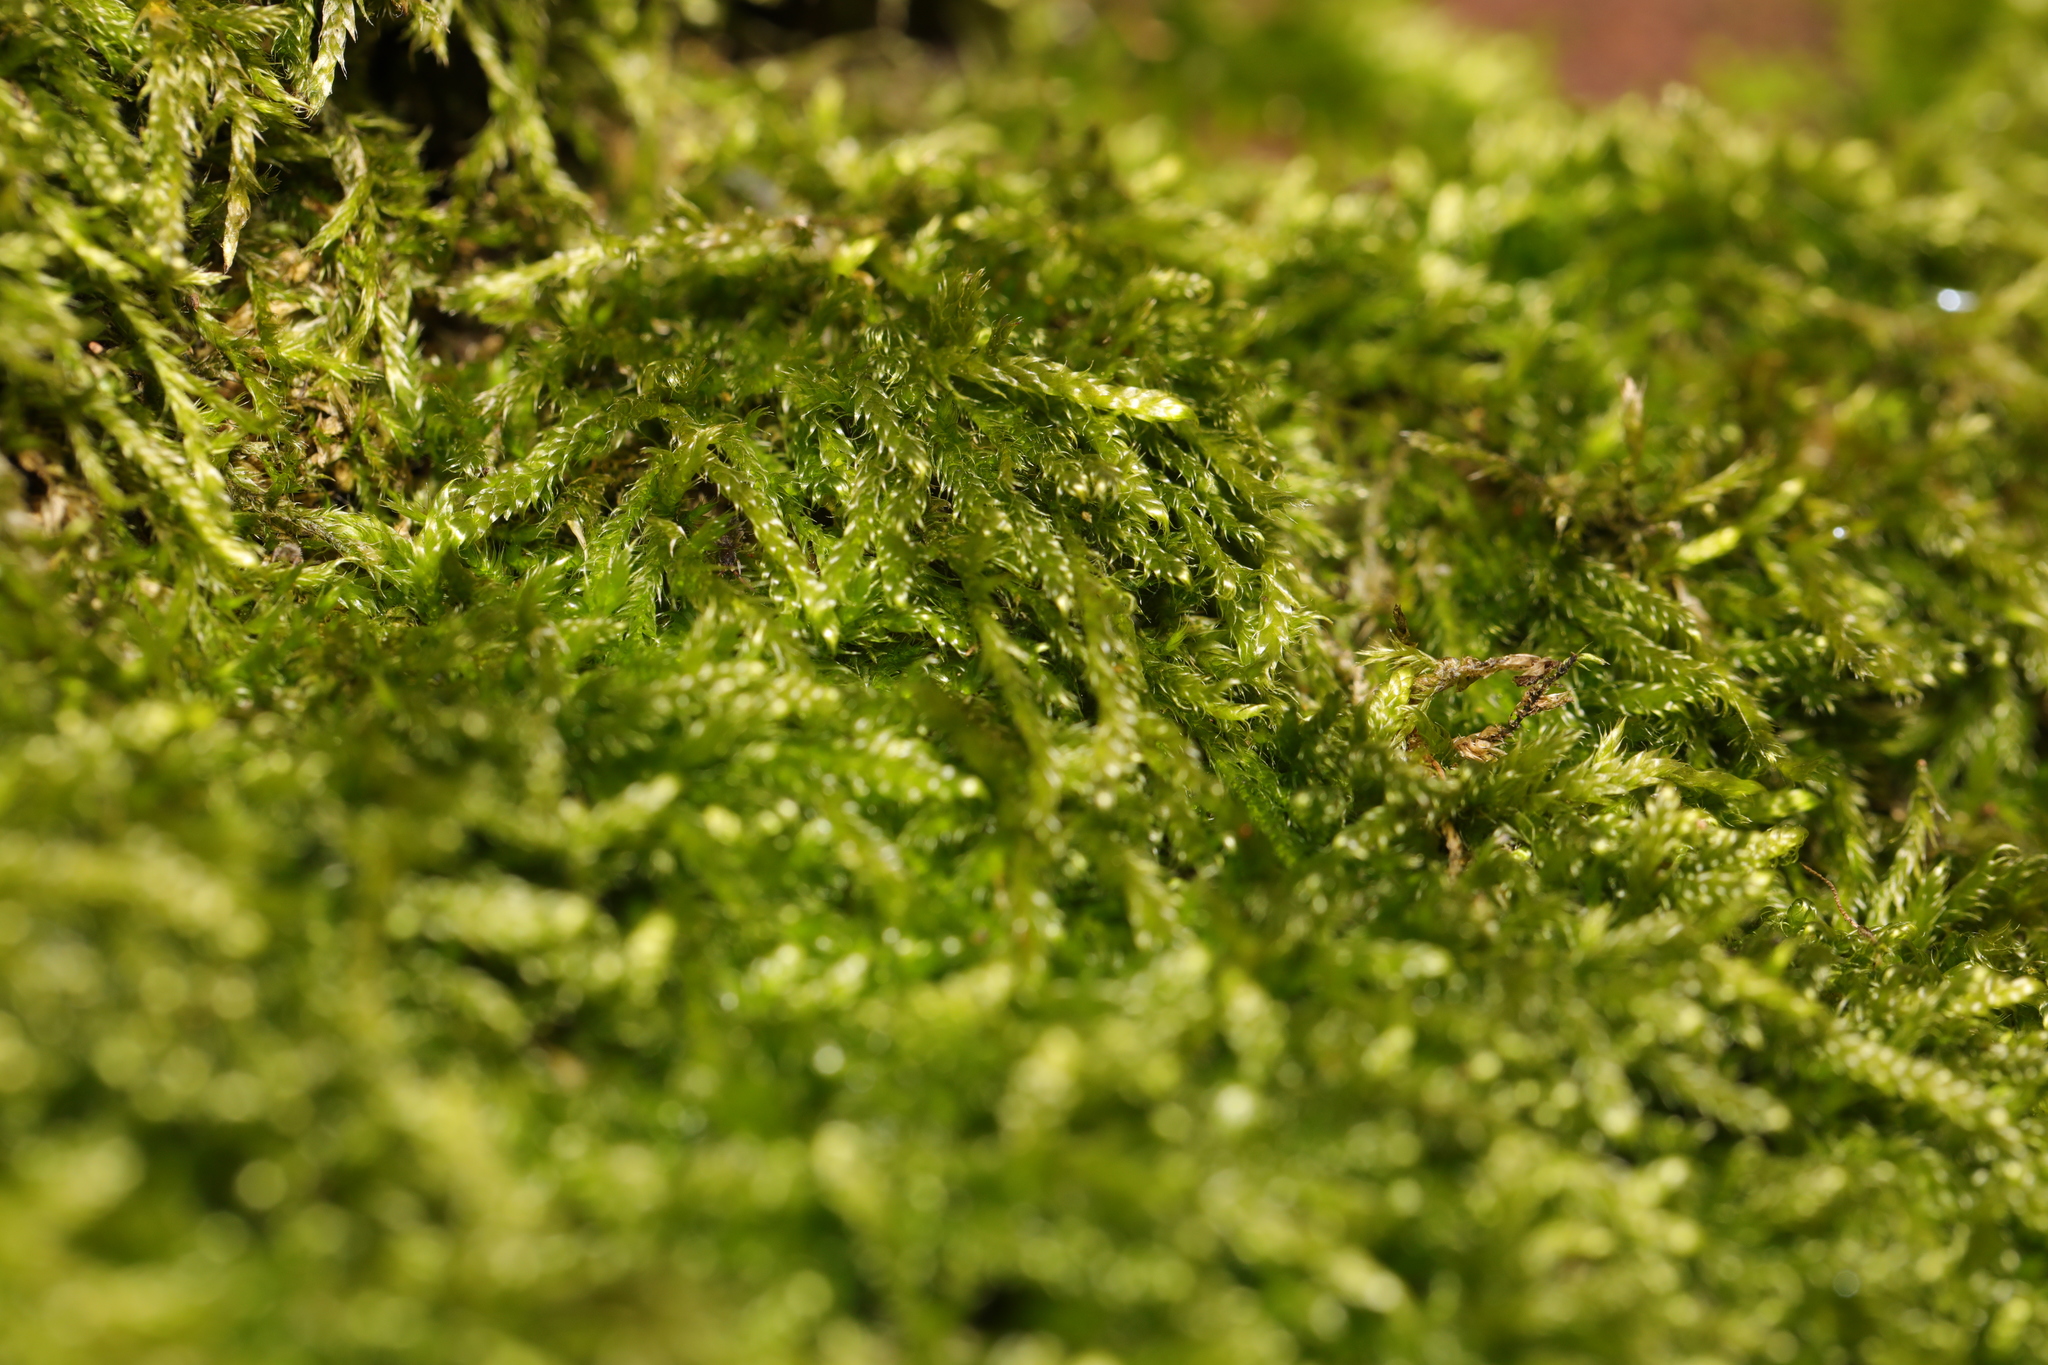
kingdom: Plantae
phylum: Bryophyta
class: Bryopsida
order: Hypnales
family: Hypnaceae
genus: Hypnum
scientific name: Hypnum cupressiforme
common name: Cypress-leaved plait-moss
